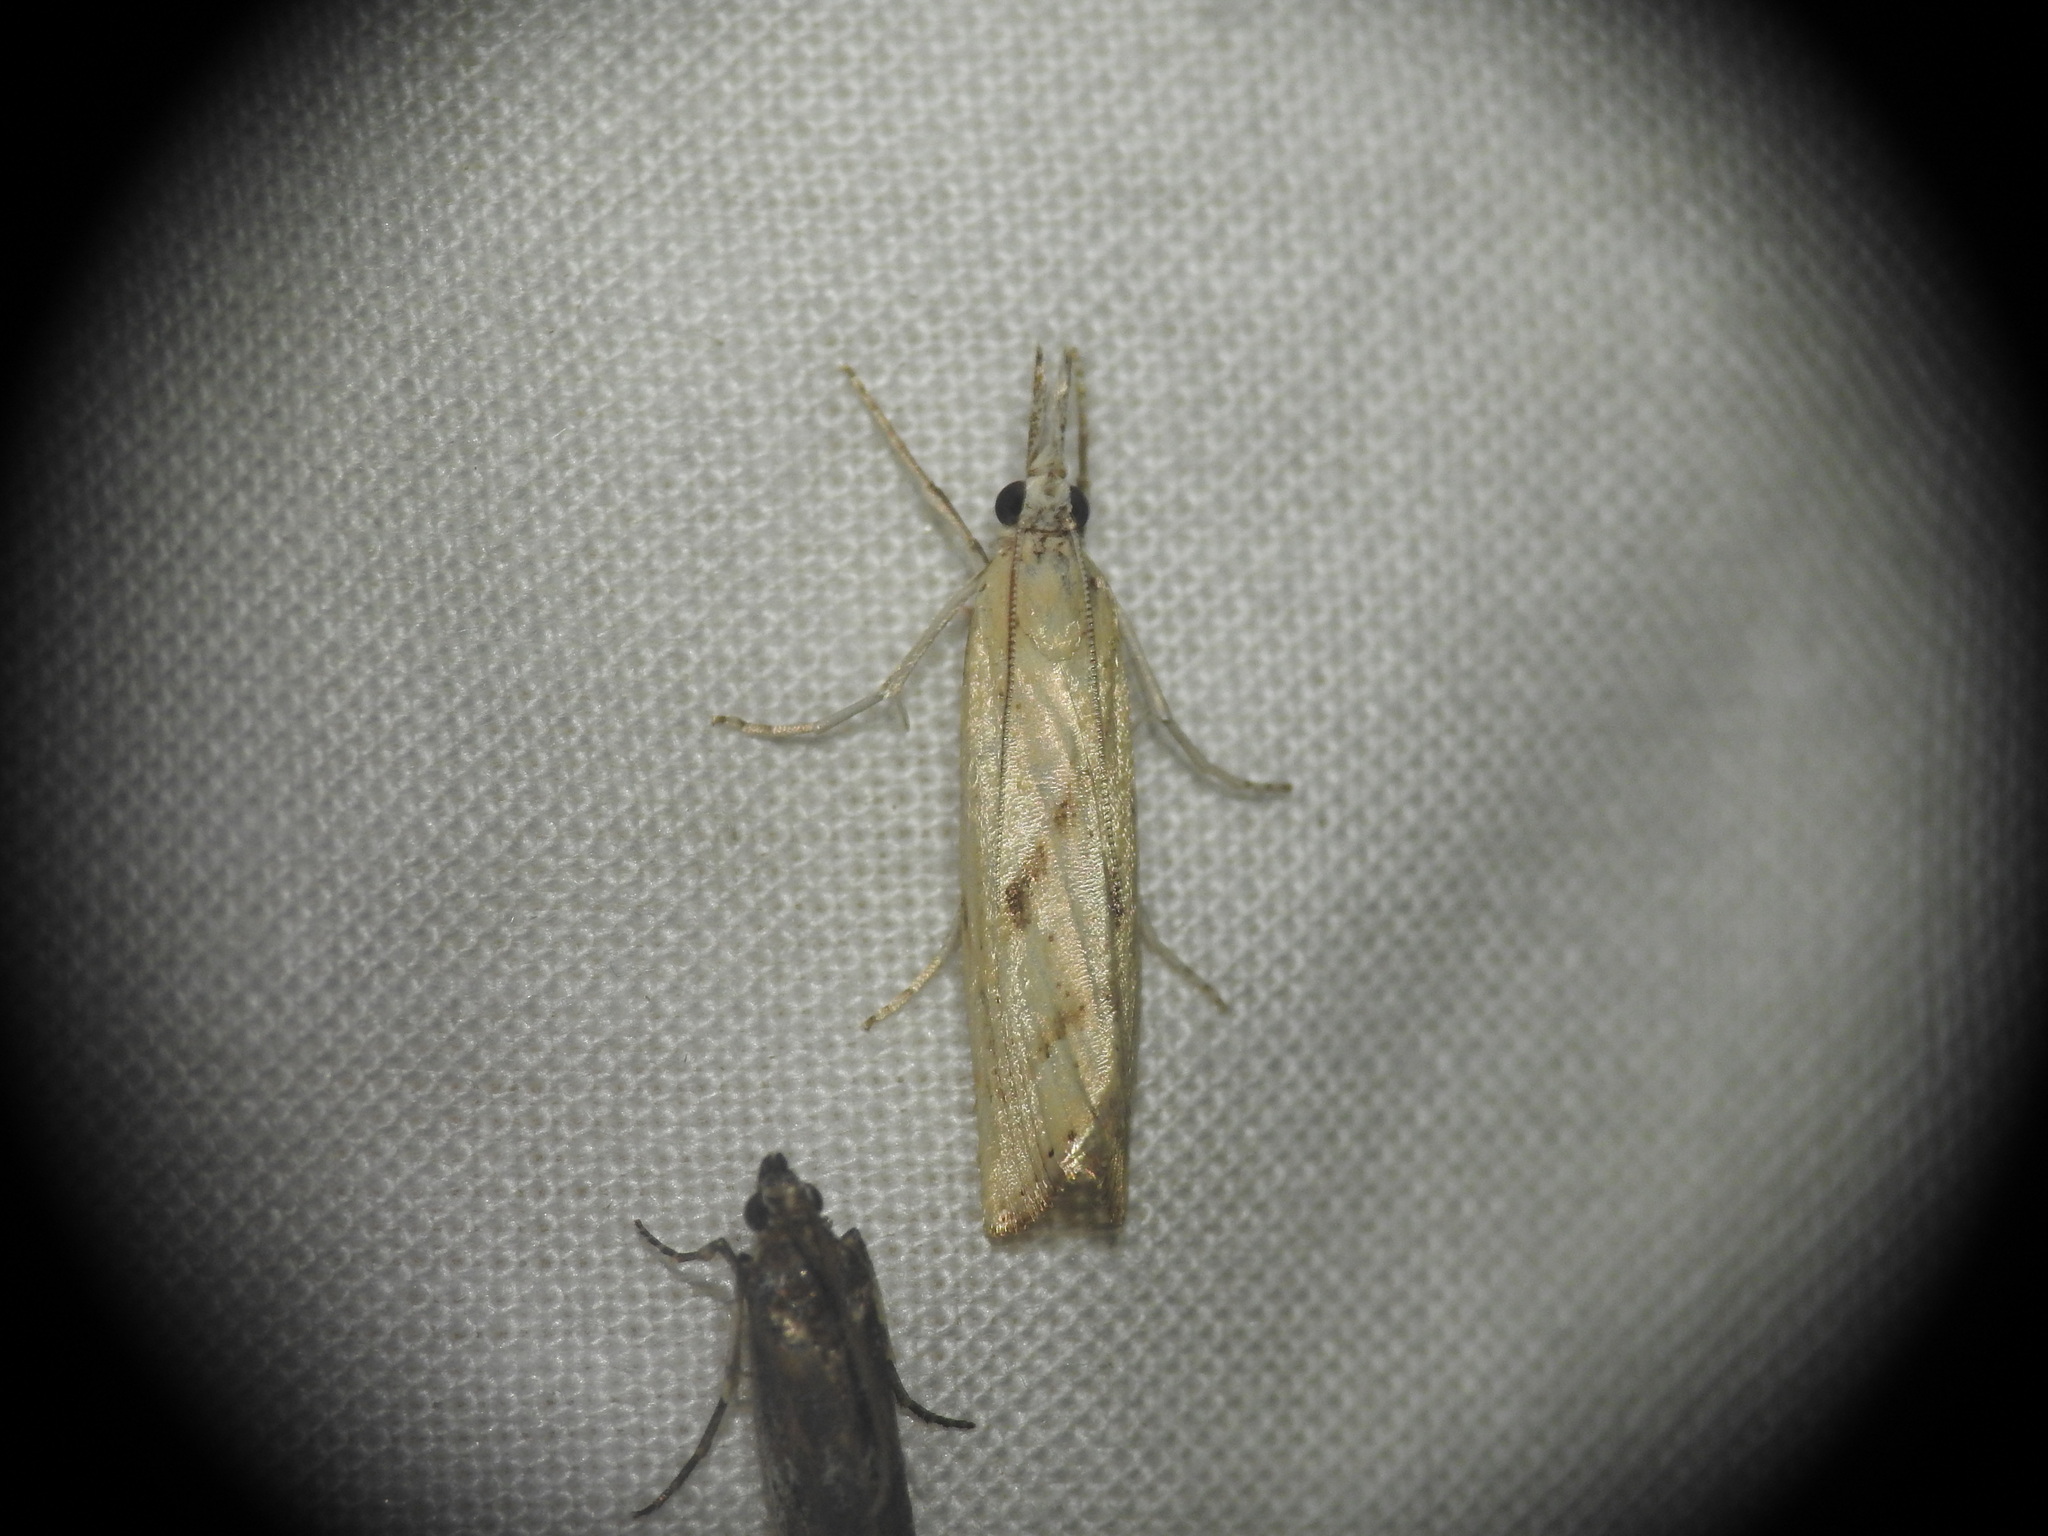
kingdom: Animalia
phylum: Arthropoda
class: Insecta
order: Lepidoptera
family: Crambidae
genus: Agriphila
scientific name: Agriphila inquinatella
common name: Barred grass-veneer
